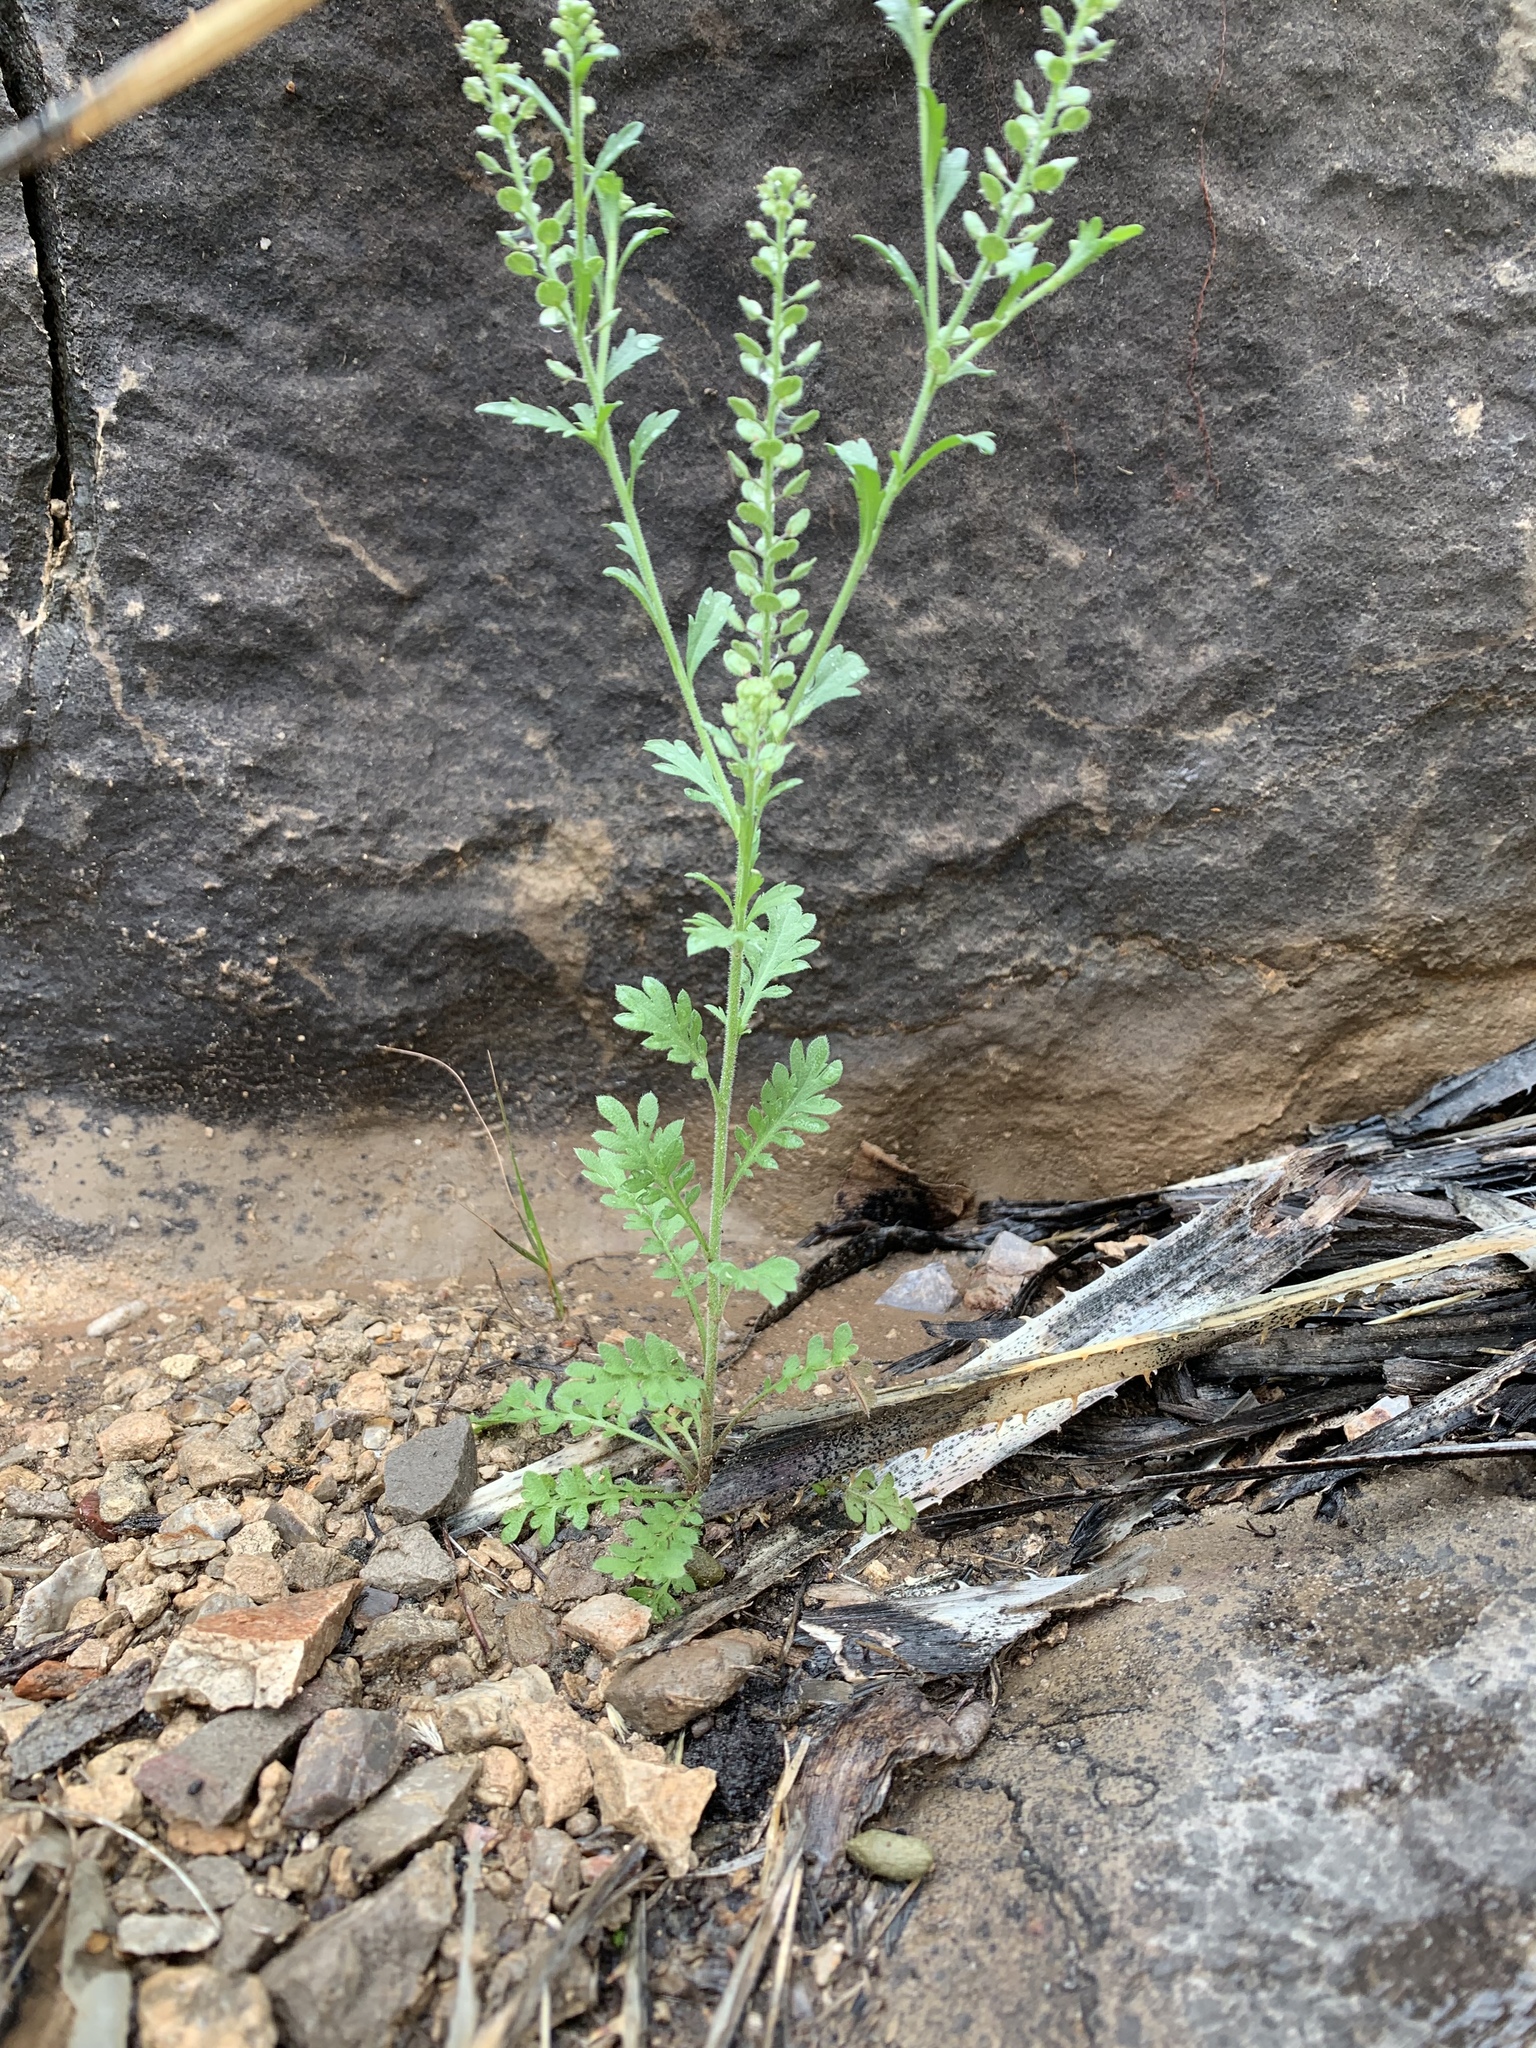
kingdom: Plantae
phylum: Tracheophyta
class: Magnoliopsida
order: Brassicales
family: Brassicaceae
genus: Lepidium
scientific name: Lepidium virginicum
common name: Least pepperwort
